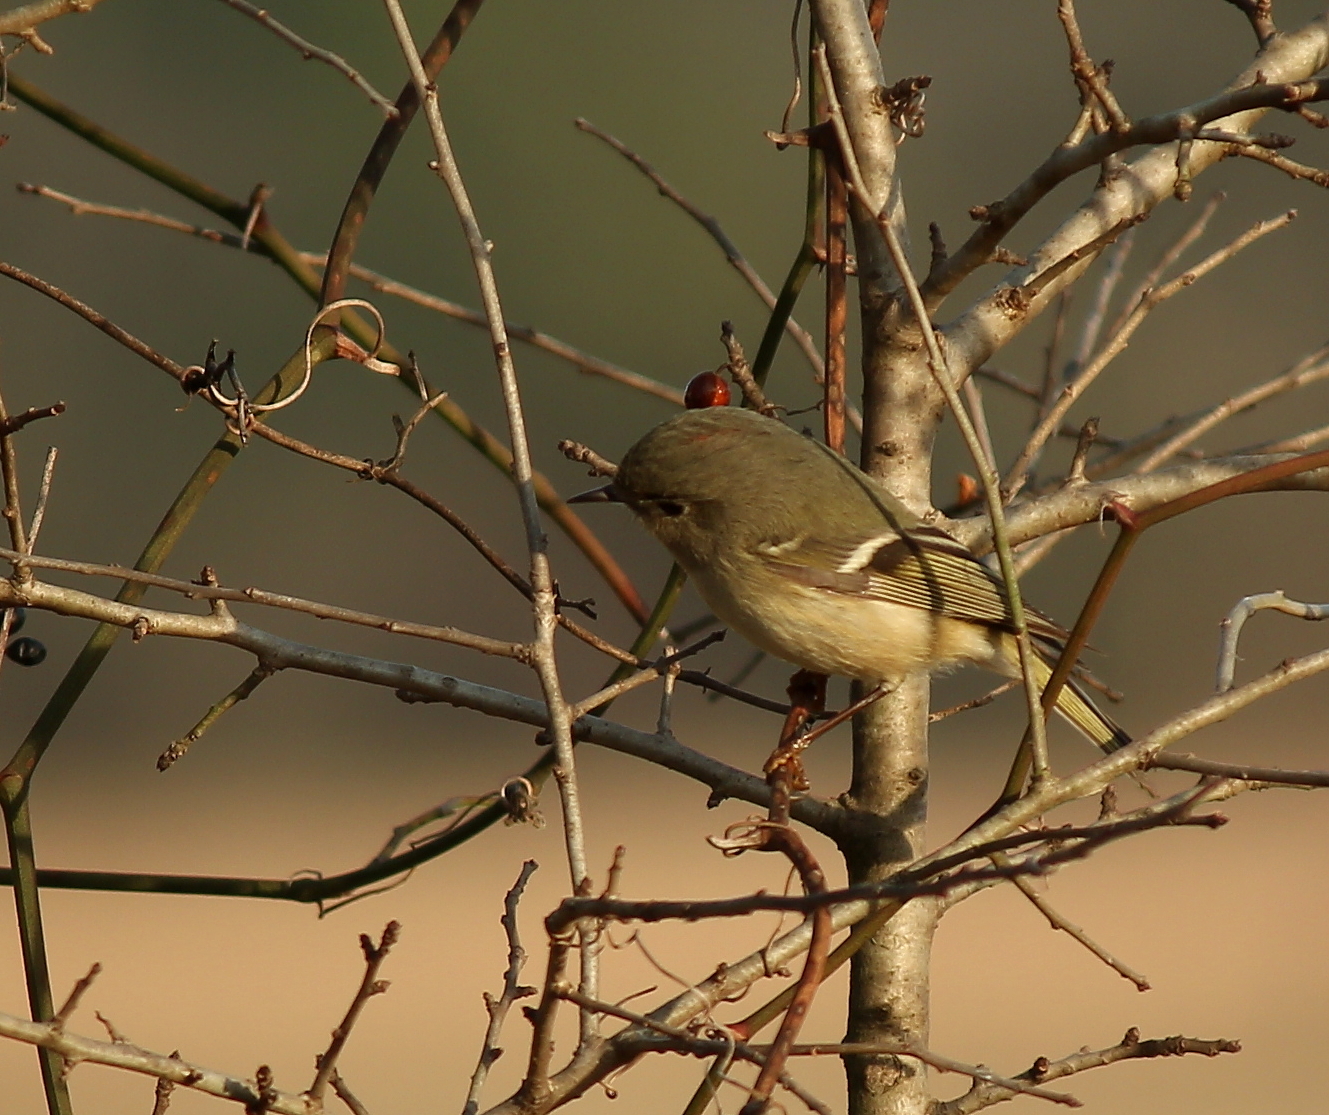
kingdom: Animalia
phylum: Chordata
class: Aves
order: Passeriformes
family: Regulidae
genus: Regulus
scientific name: Regulus calendula
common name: Ruby-crowned kinglet
